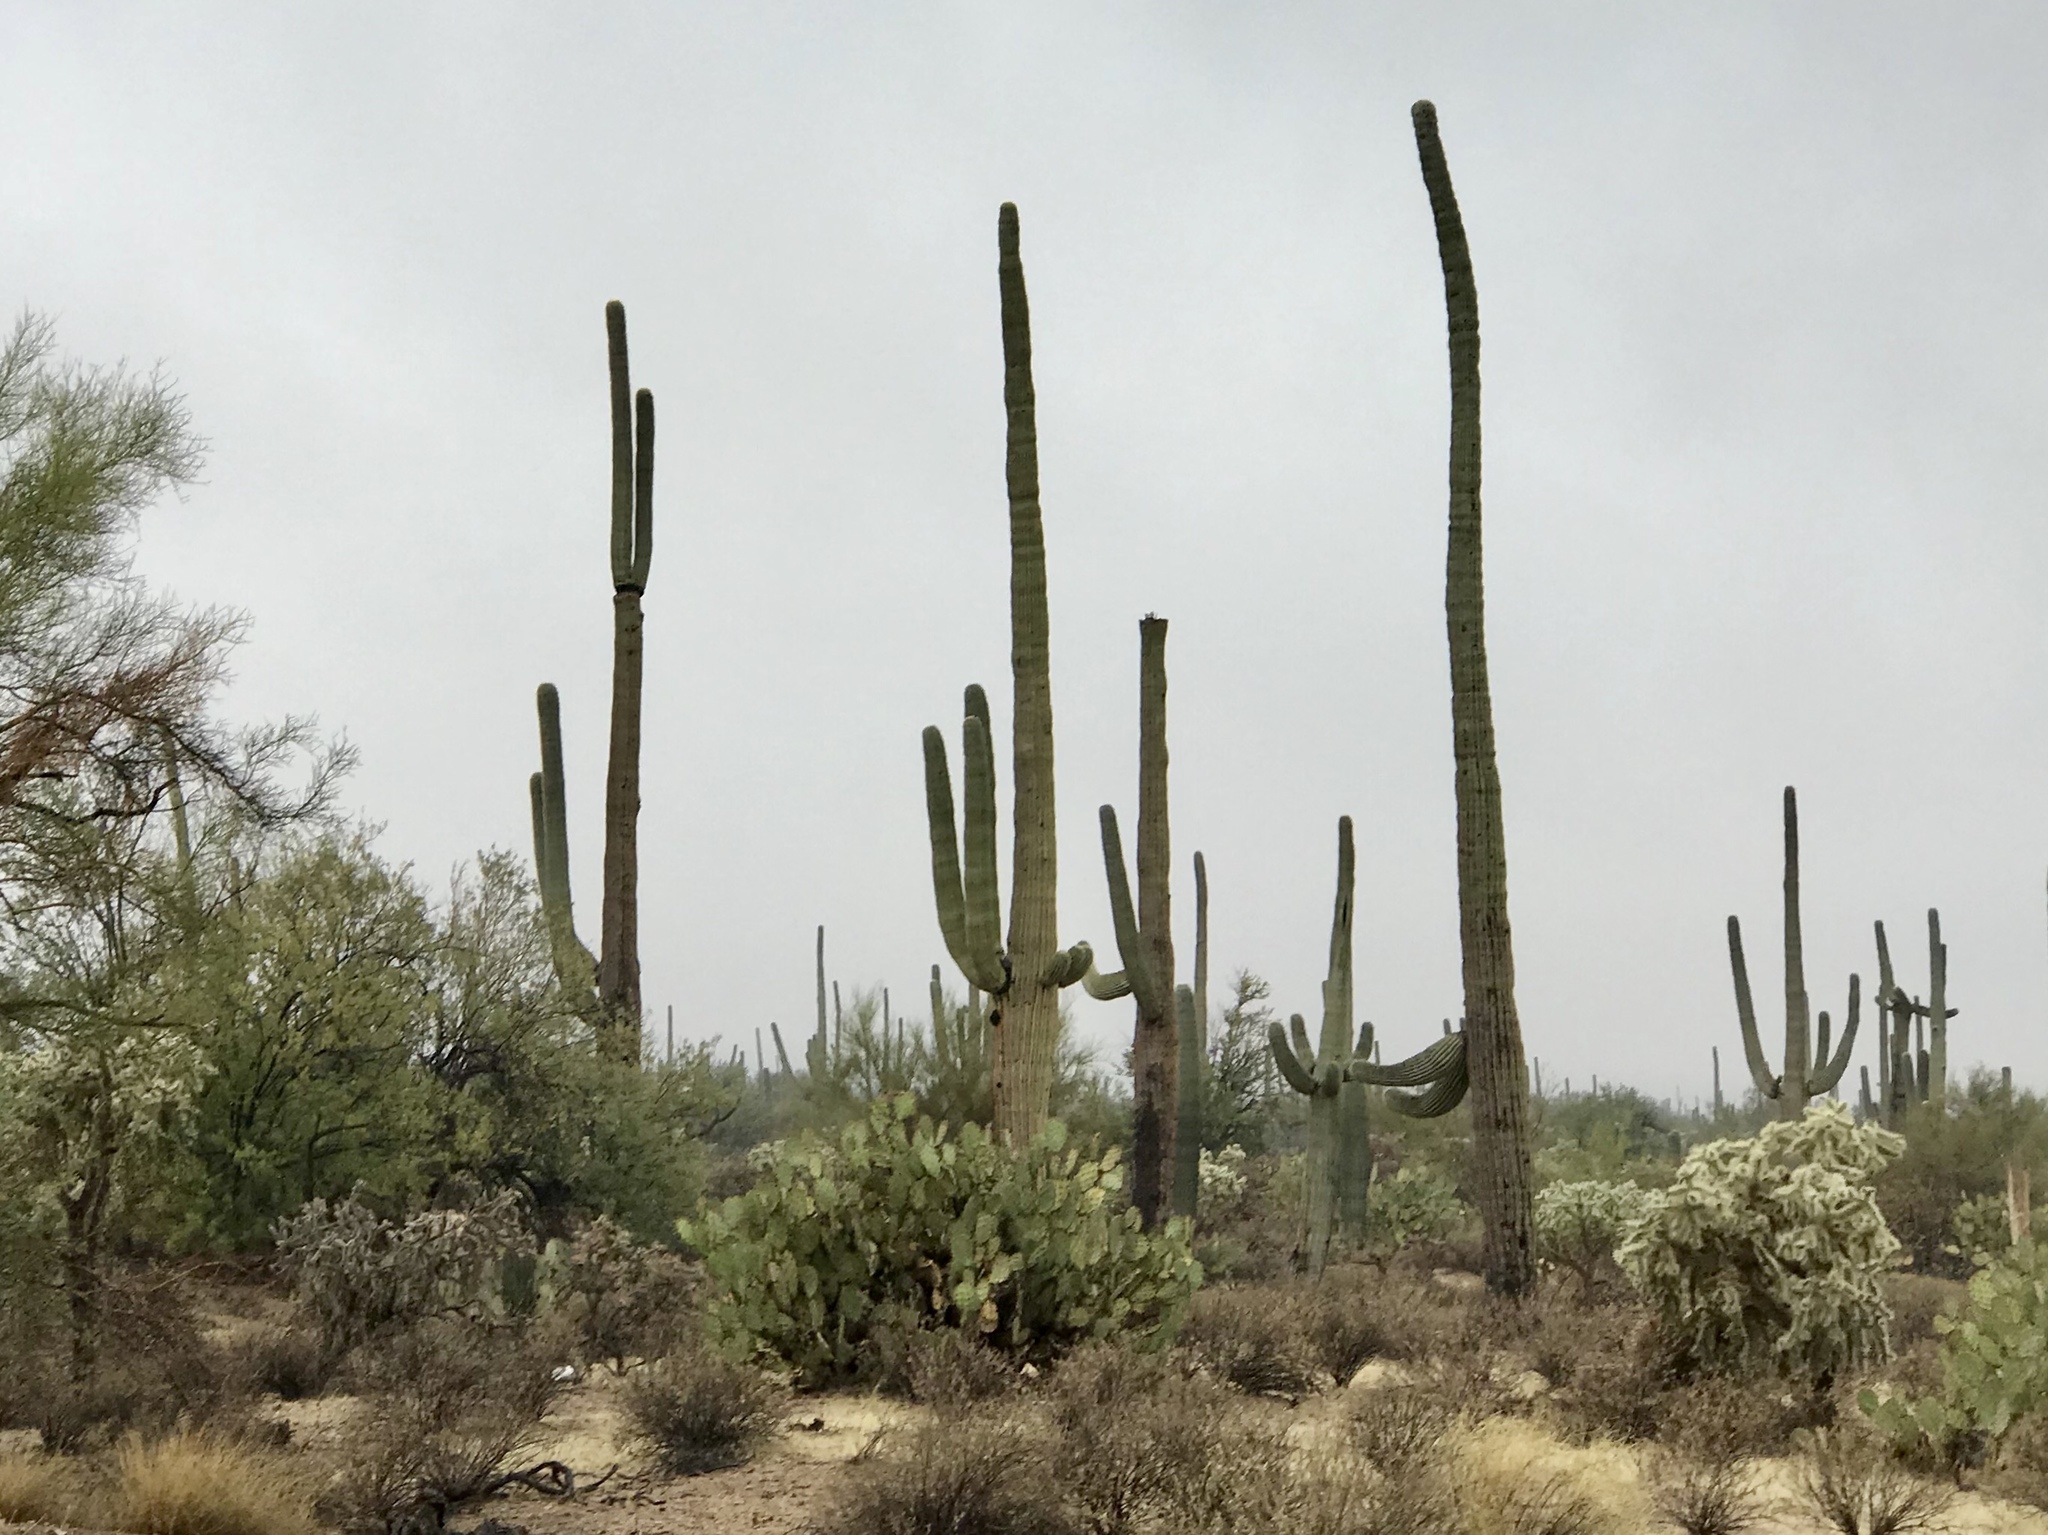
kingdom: Plantae
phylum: Tracheophyta
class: Magnoliopsida
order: Caryophyllales
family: Cactaceae
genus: Carnegiea
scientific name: Carnegiea gigantea
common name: Saguaro
